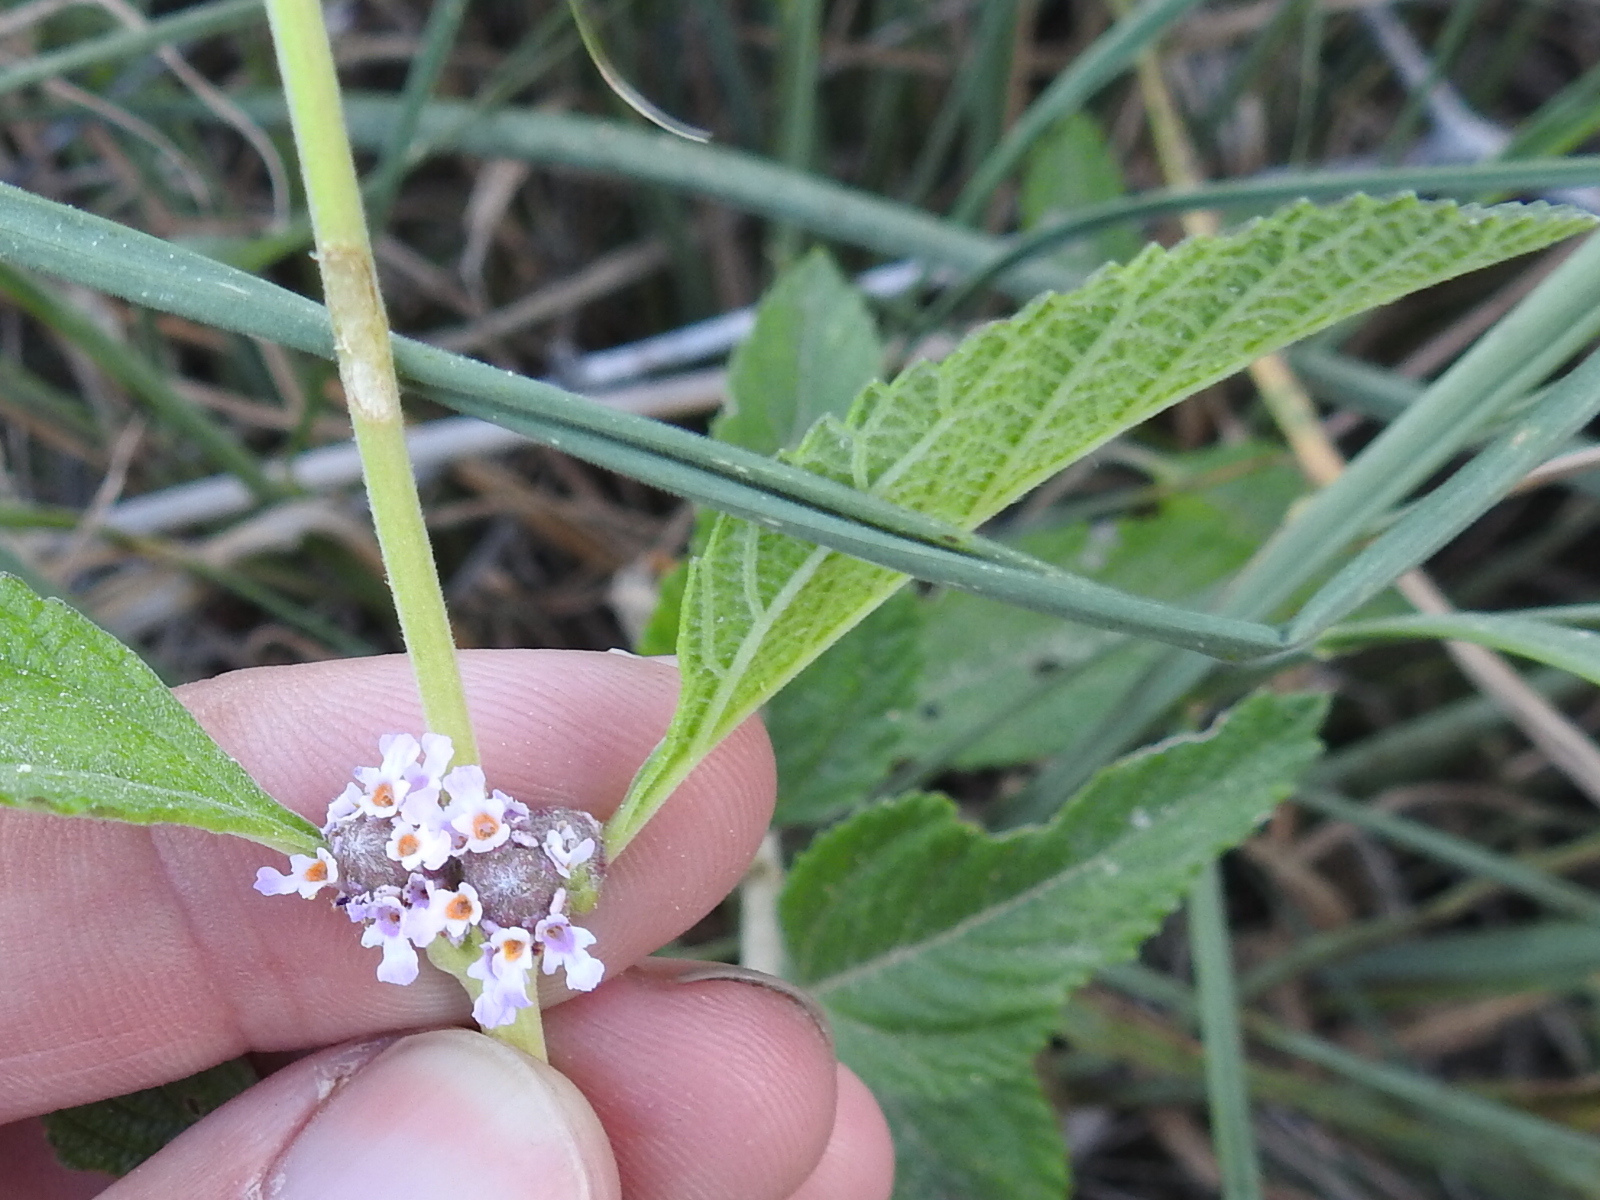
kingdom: Plantae
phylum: Tracheophyta
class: Magnoliopsida
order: Lamiales
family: Verbenaceae
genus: Lippia
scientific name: Lippia alba
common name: Bushy matgrass
